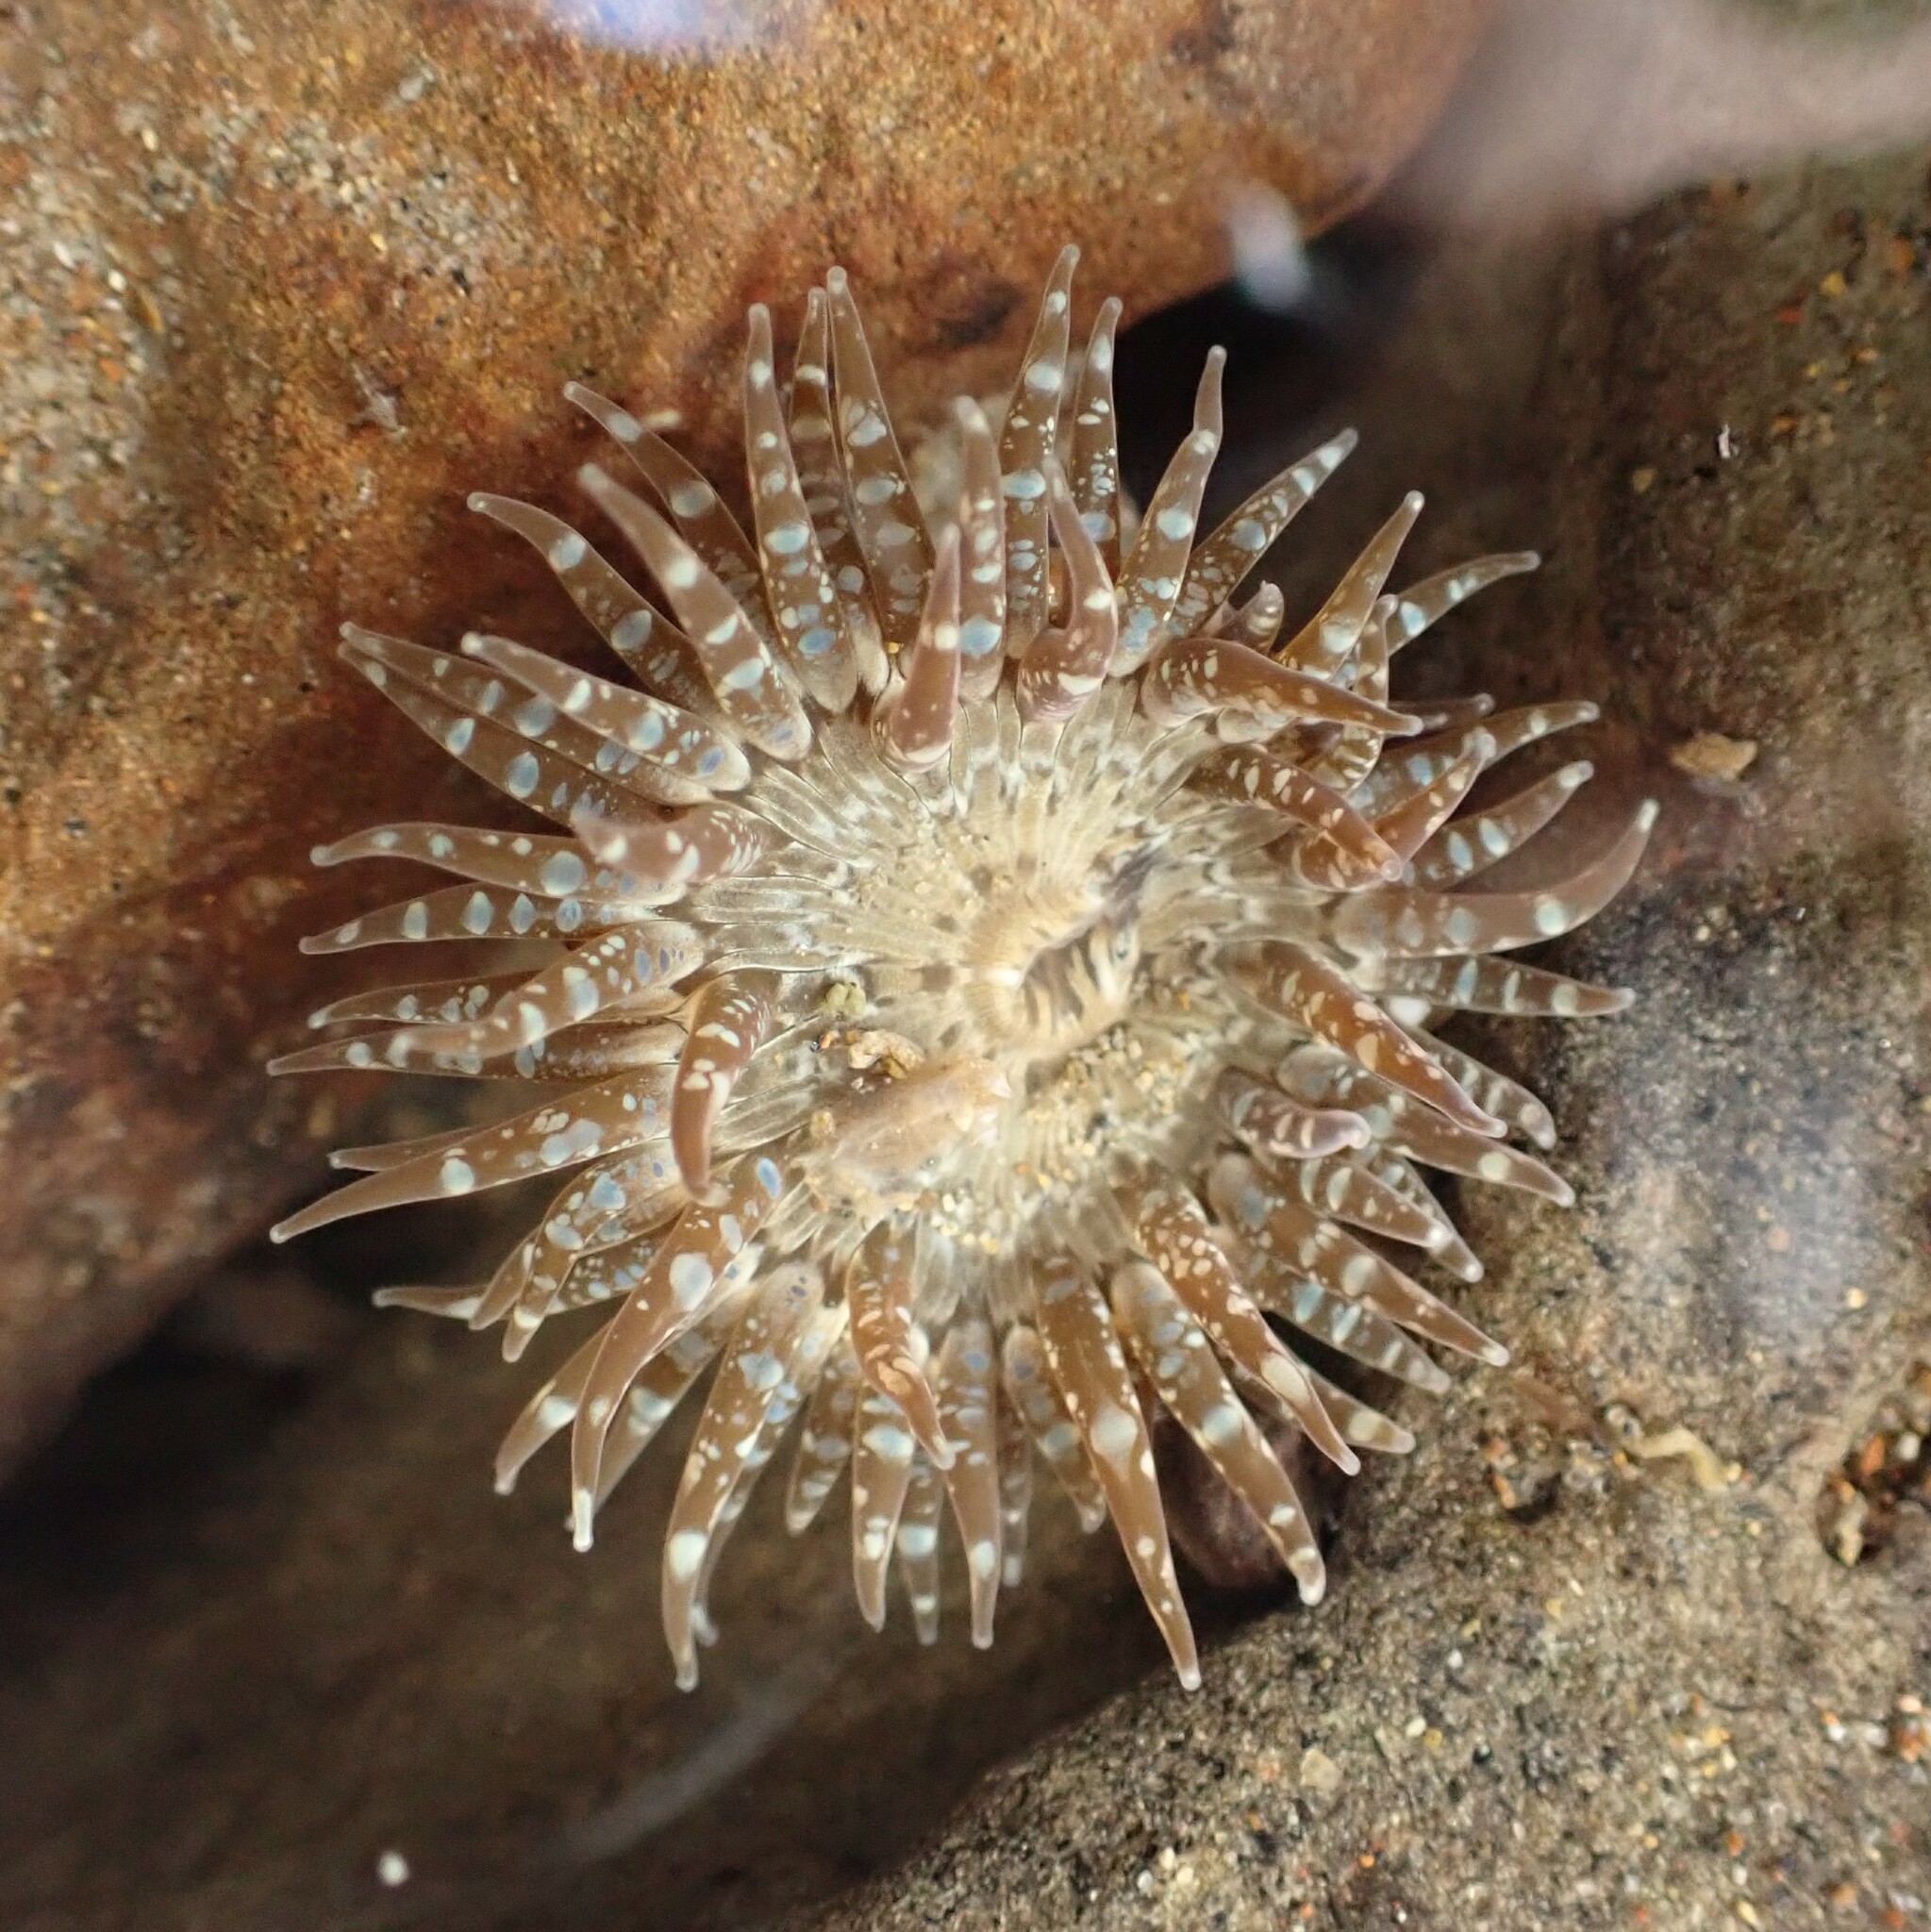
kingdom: Animalia
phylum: Cnidaria
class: Anthozoa
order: Actiniaria
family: Actiniidae
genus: Anthopleura
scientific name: Anthopleura hermaphroditica
